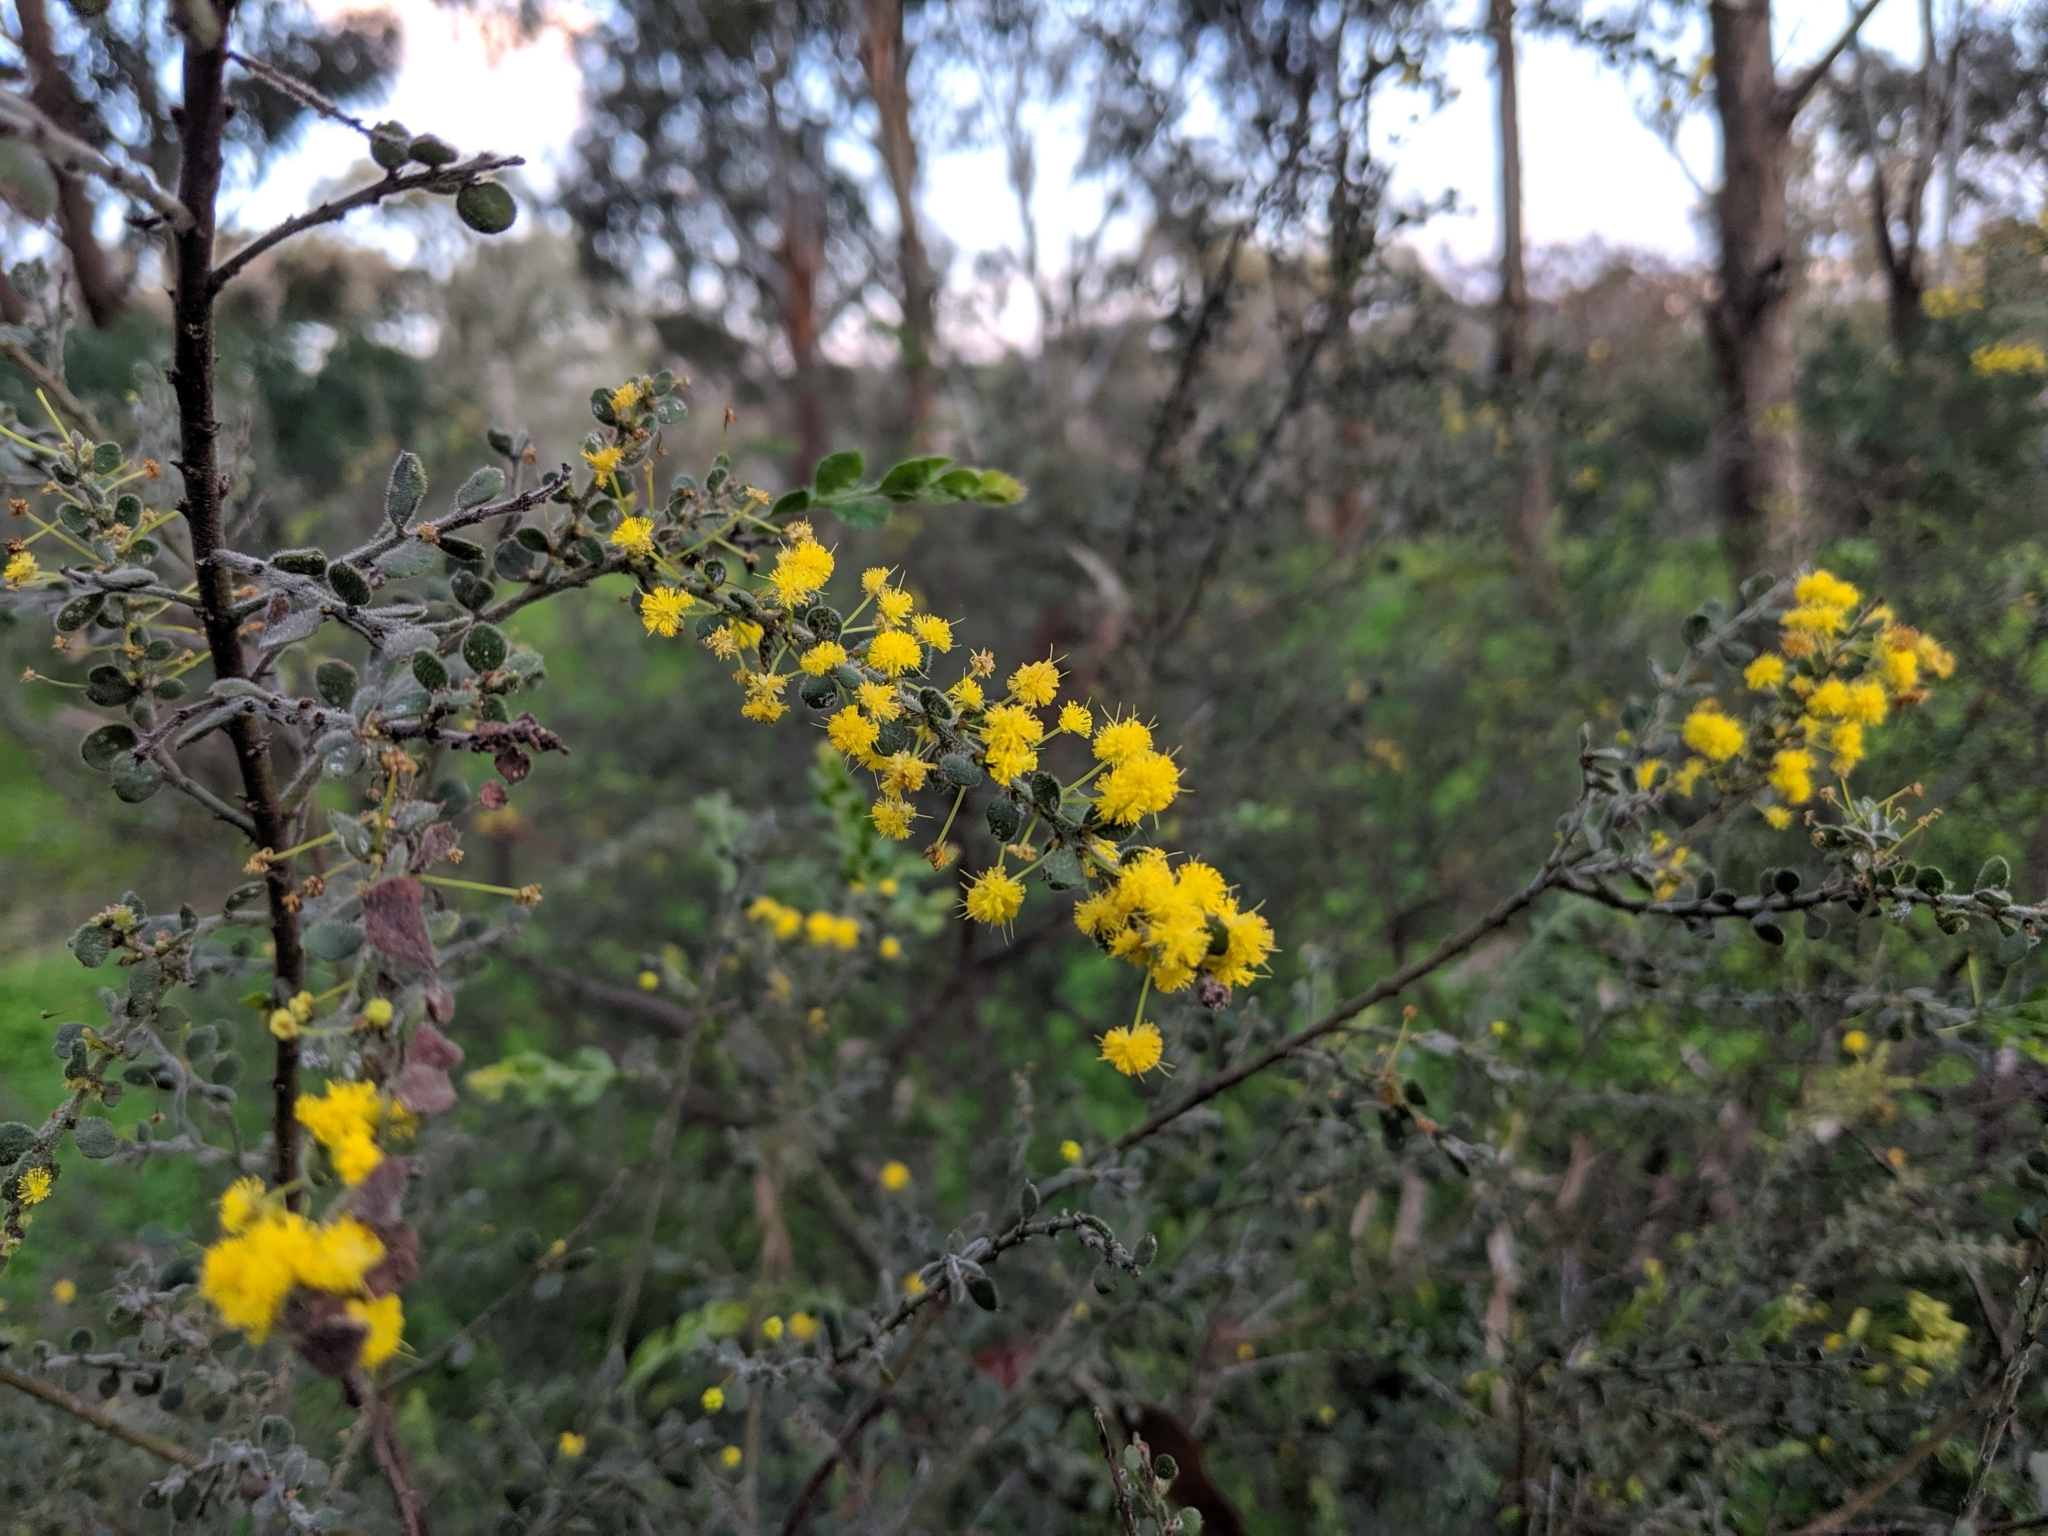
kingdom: Plantae
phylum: Tracheophyta
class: Magnoliopsida
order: Fabales
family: Fabaceae
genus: Acacia
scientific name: Acacia acinacea
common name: Gold-dust acacia
